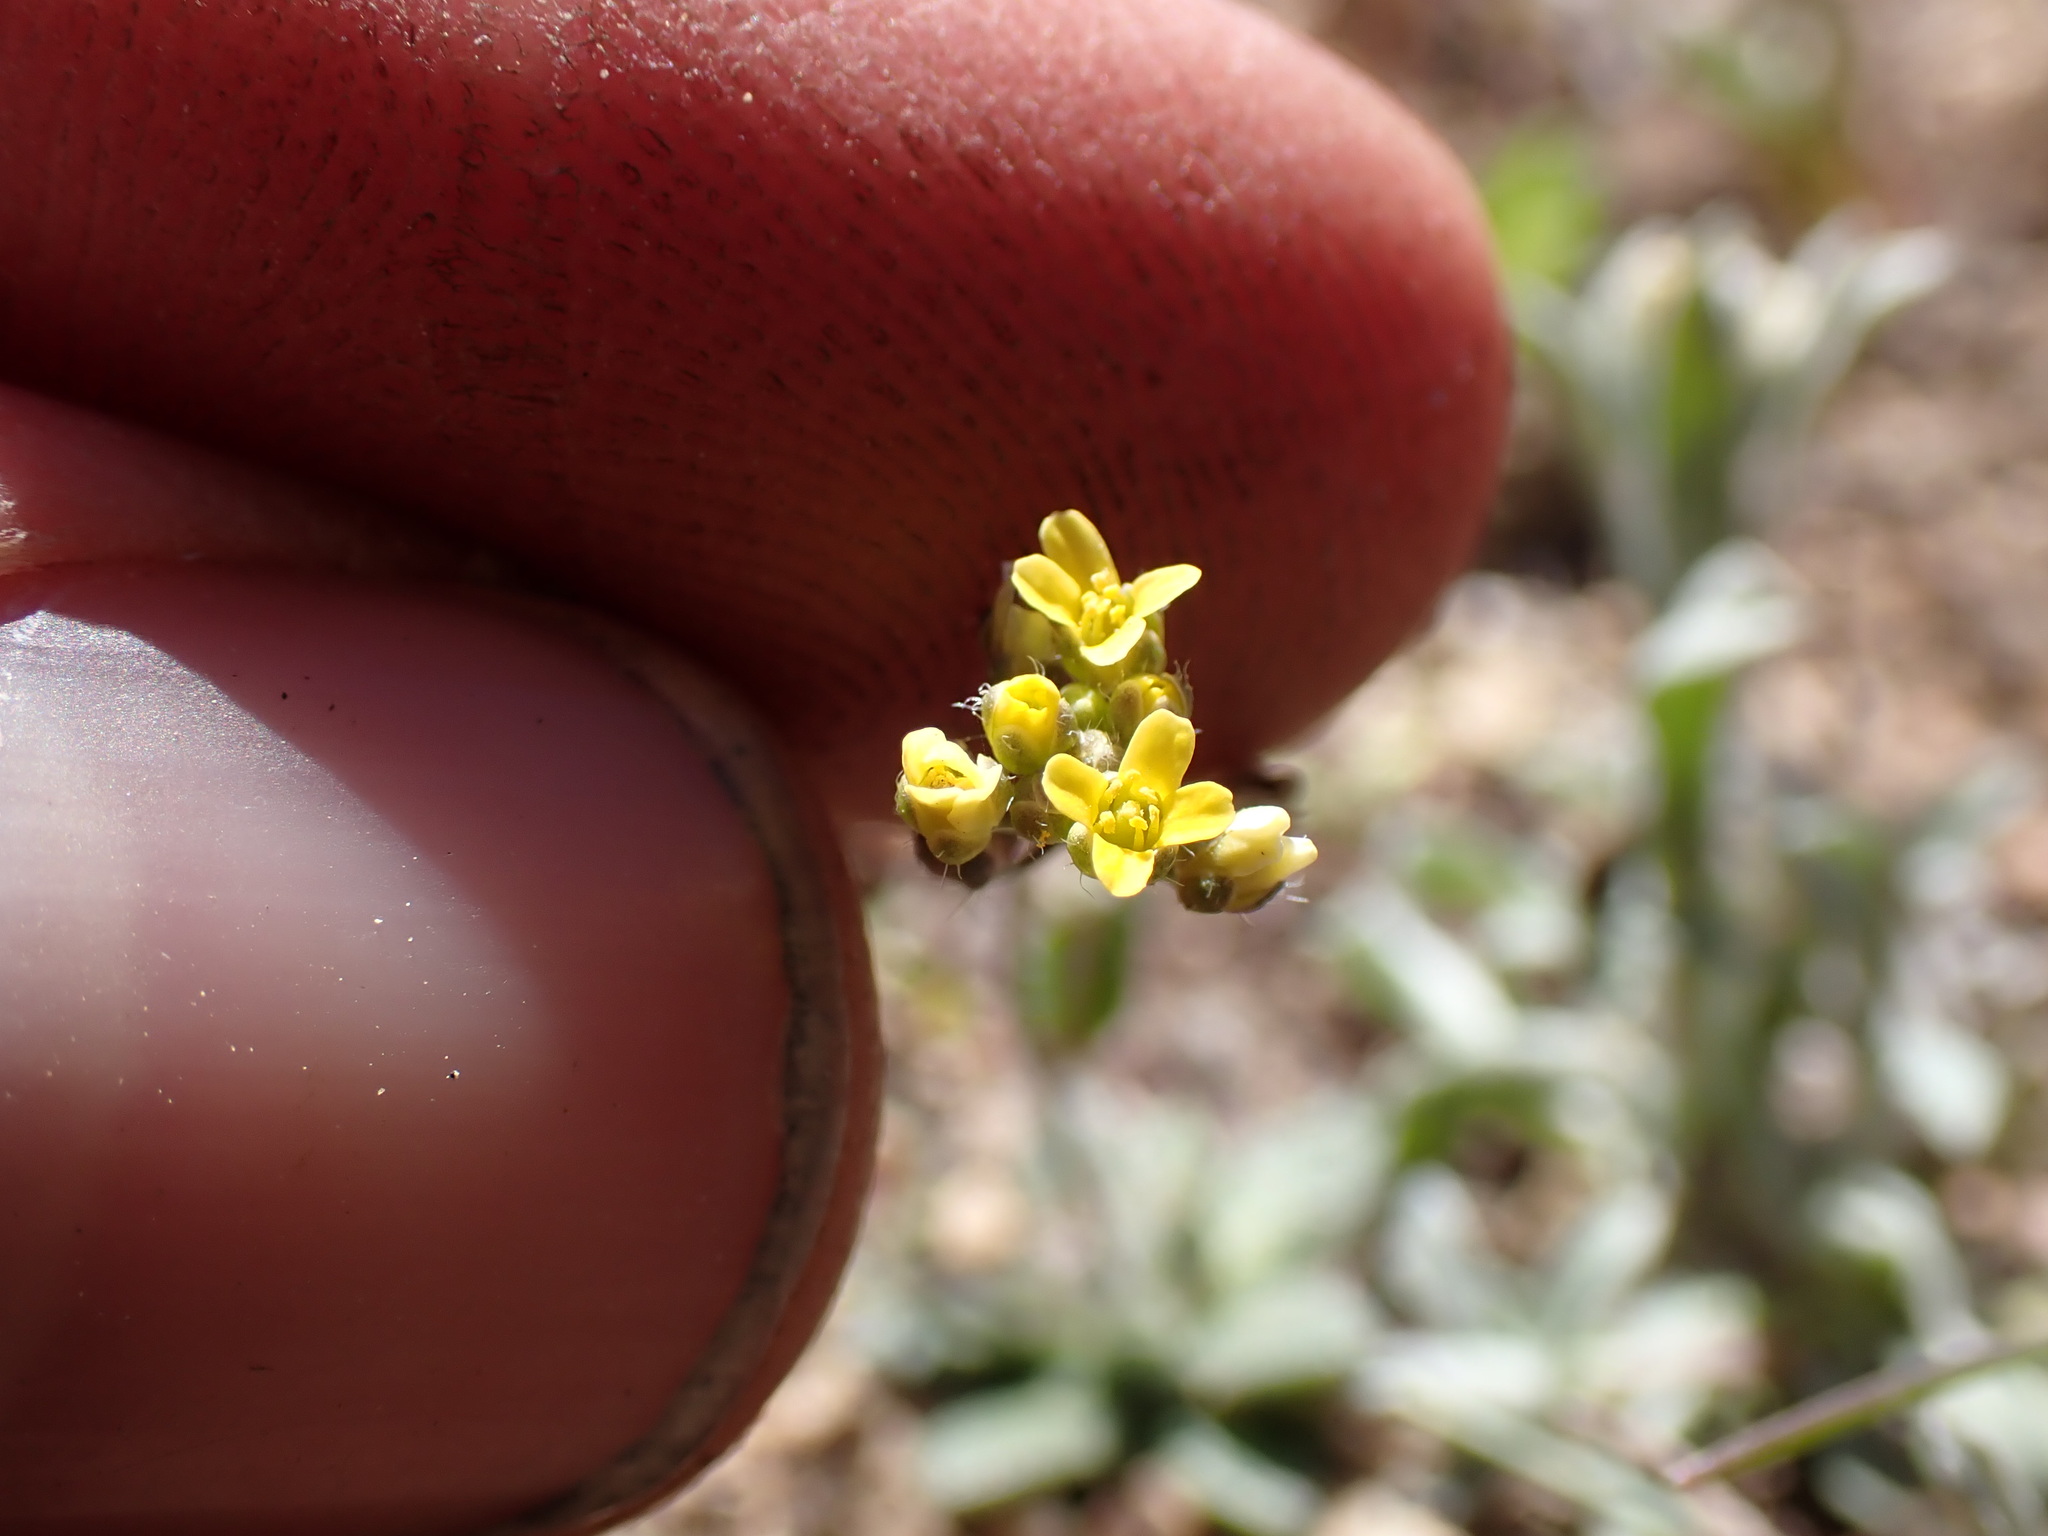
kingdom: Plantae
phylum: Tracheophyta
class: Magnoliopsida
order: Brassicales
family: Brassicaceae
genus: Draba
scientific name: Draba albertina
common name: Slender draba
